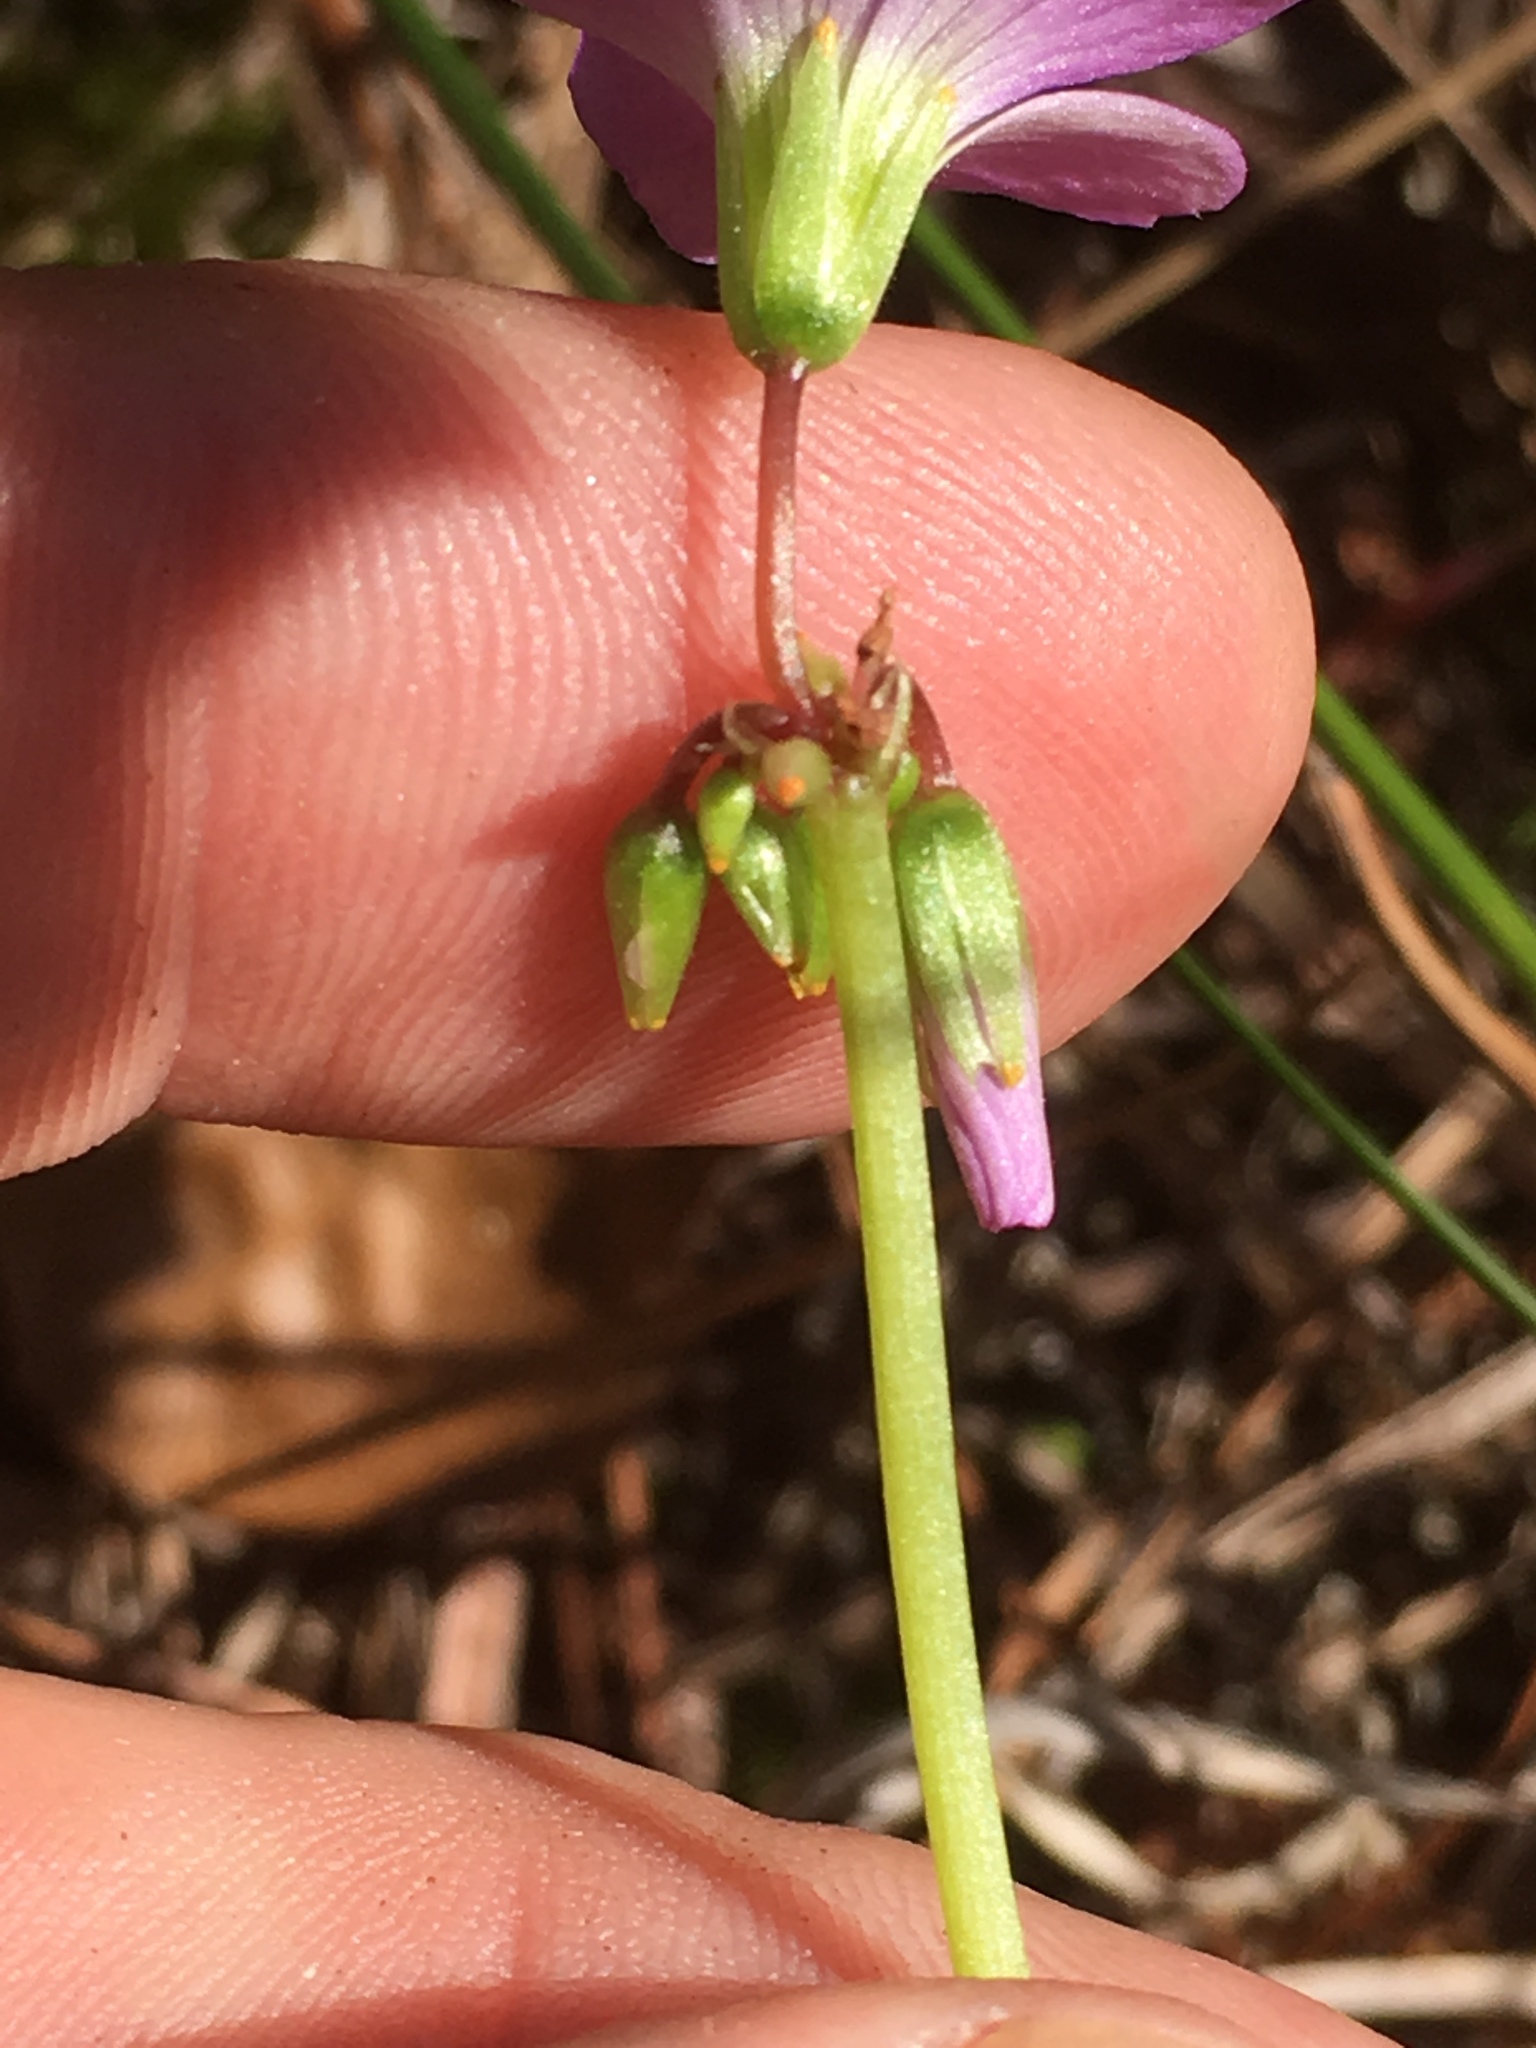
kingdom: Plantae
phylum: Tracheophyta
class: Magnoliopsida
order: Oxalidales
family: Oxalidaceae
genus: Oxalis
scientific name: Oxalis violacea
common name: Violet wood-sorrel
